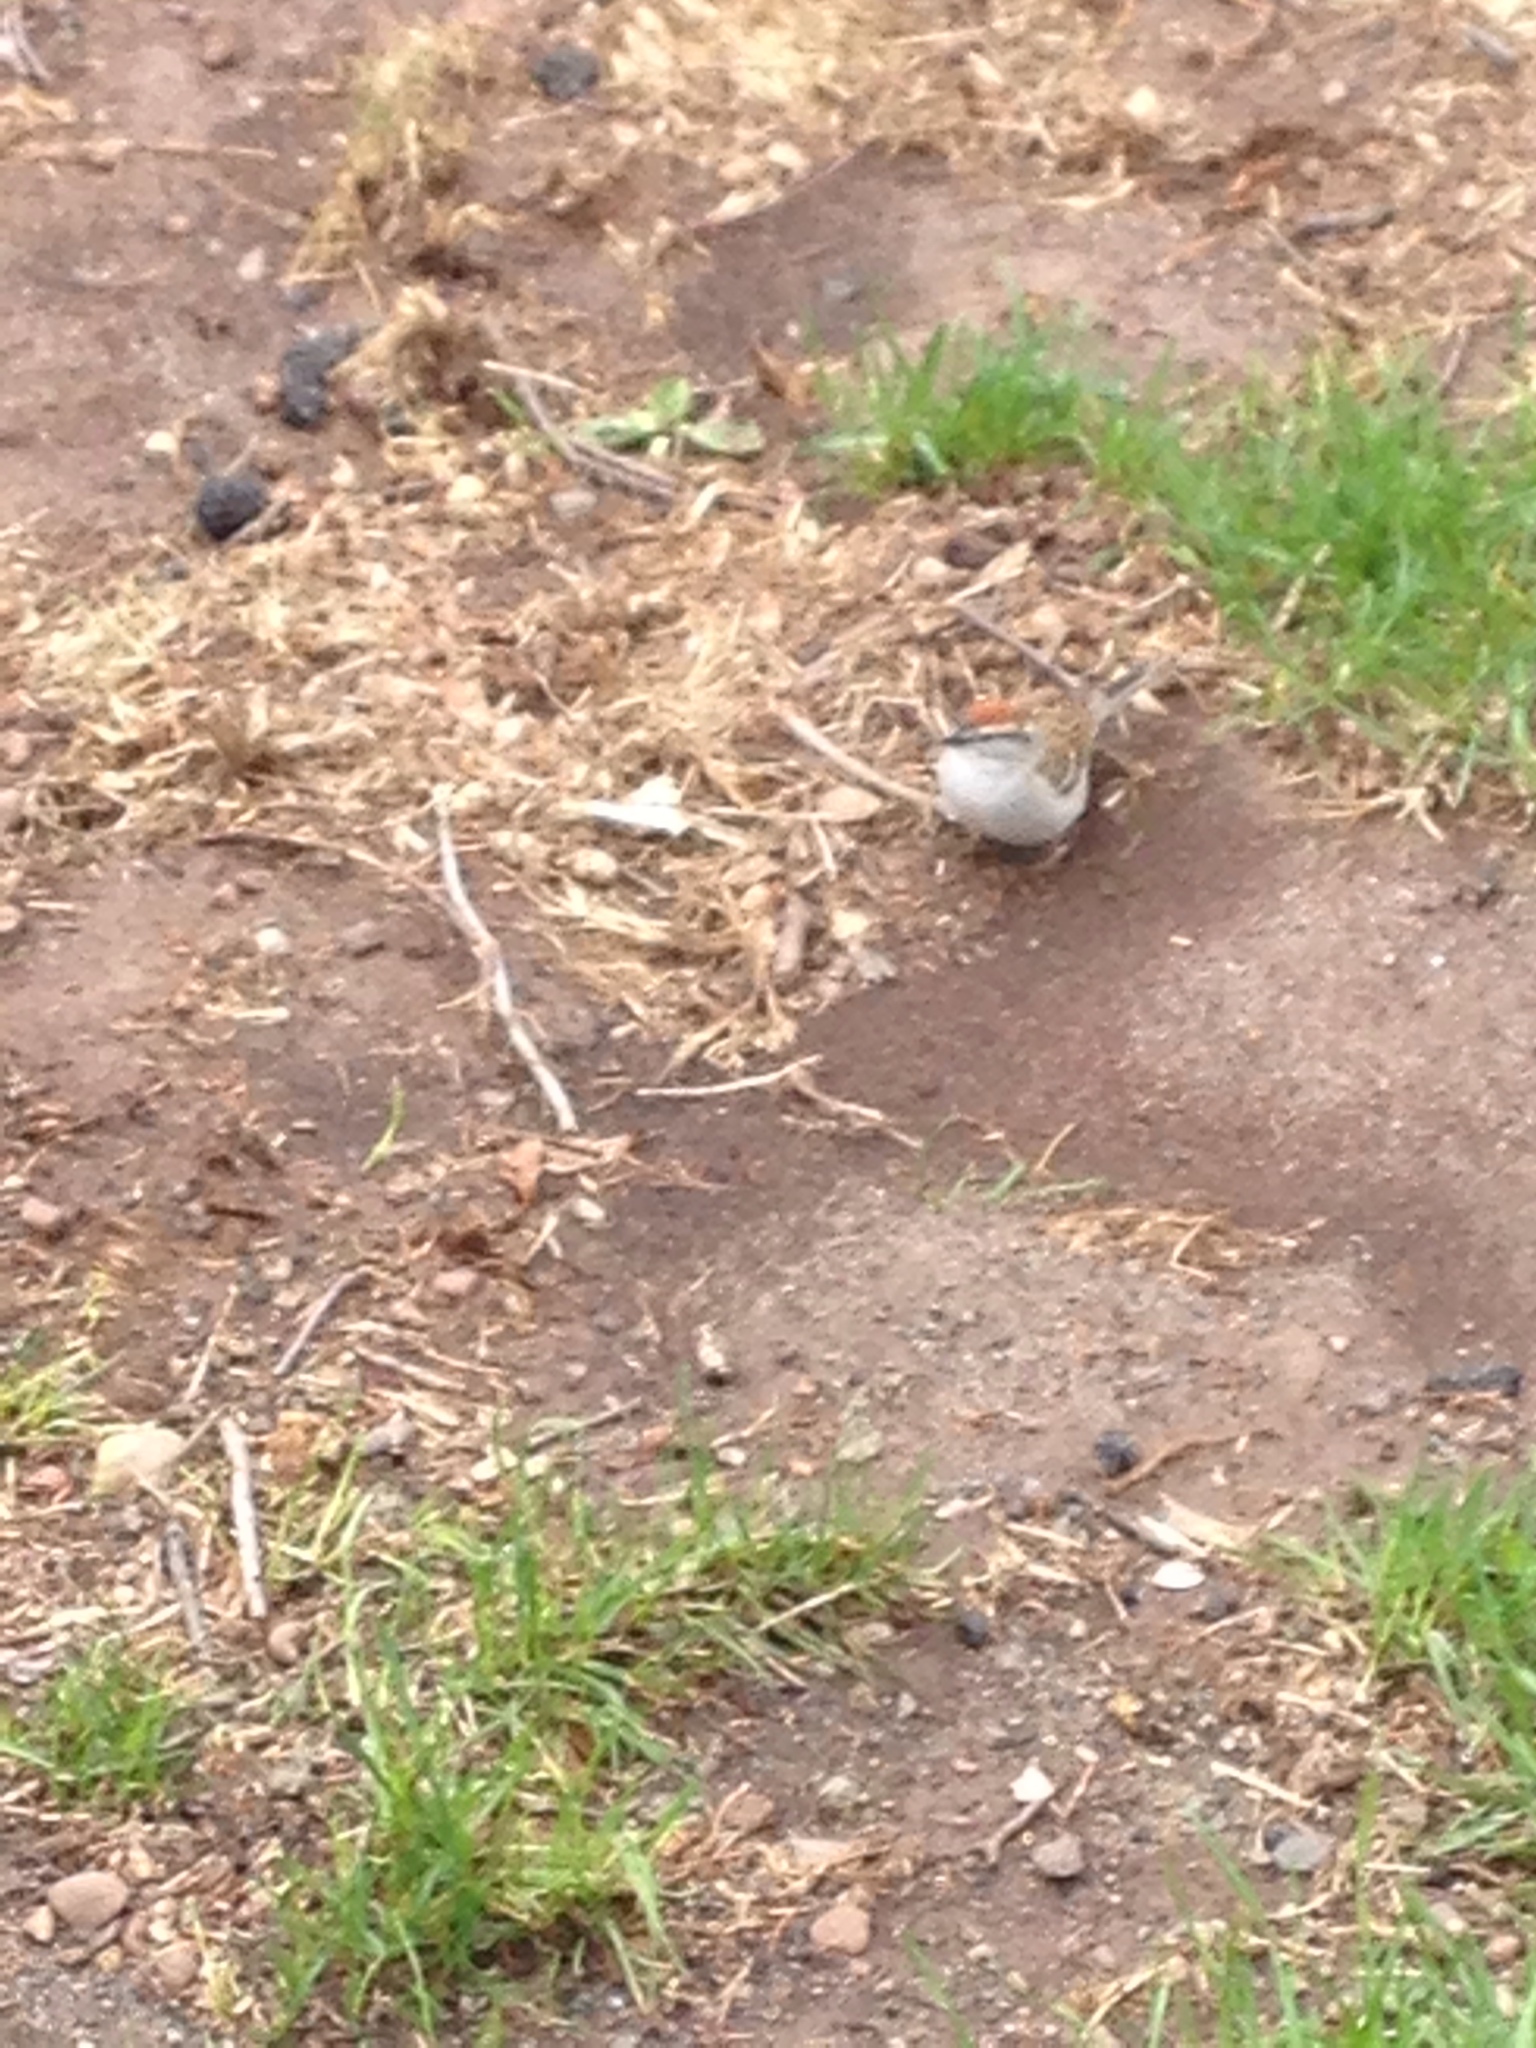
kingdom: Animalia
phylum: Chordata
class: Aves
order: Passeriformes
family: Passerellidae
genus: Spizella
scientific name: Spizella passerina
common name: Chipping sparrow
